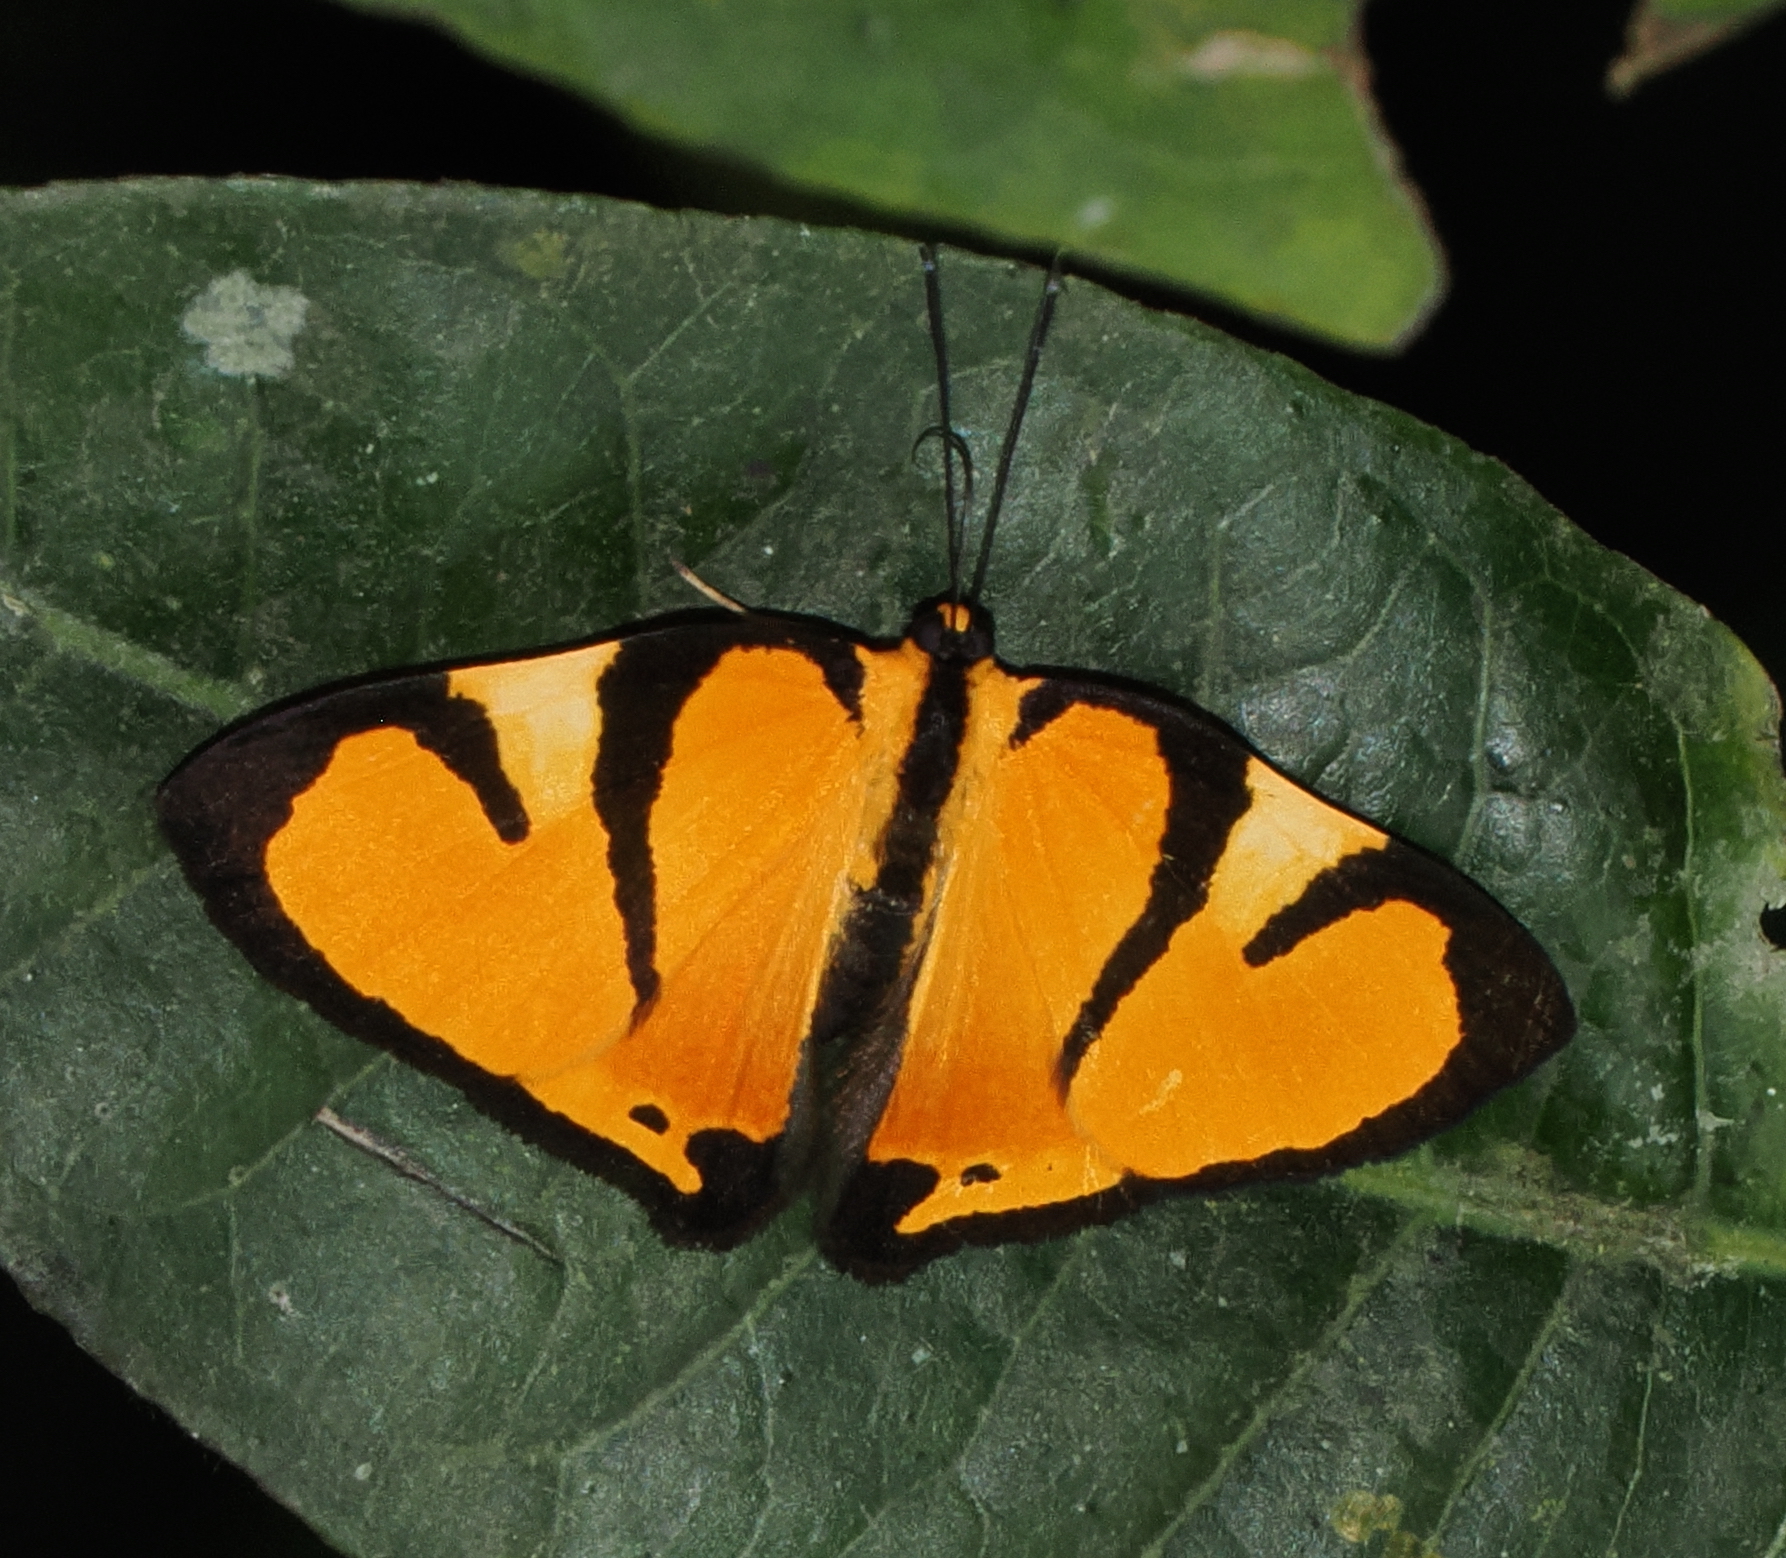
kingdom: Animalia
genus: Symmachia
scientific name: Symmachia tatiana
